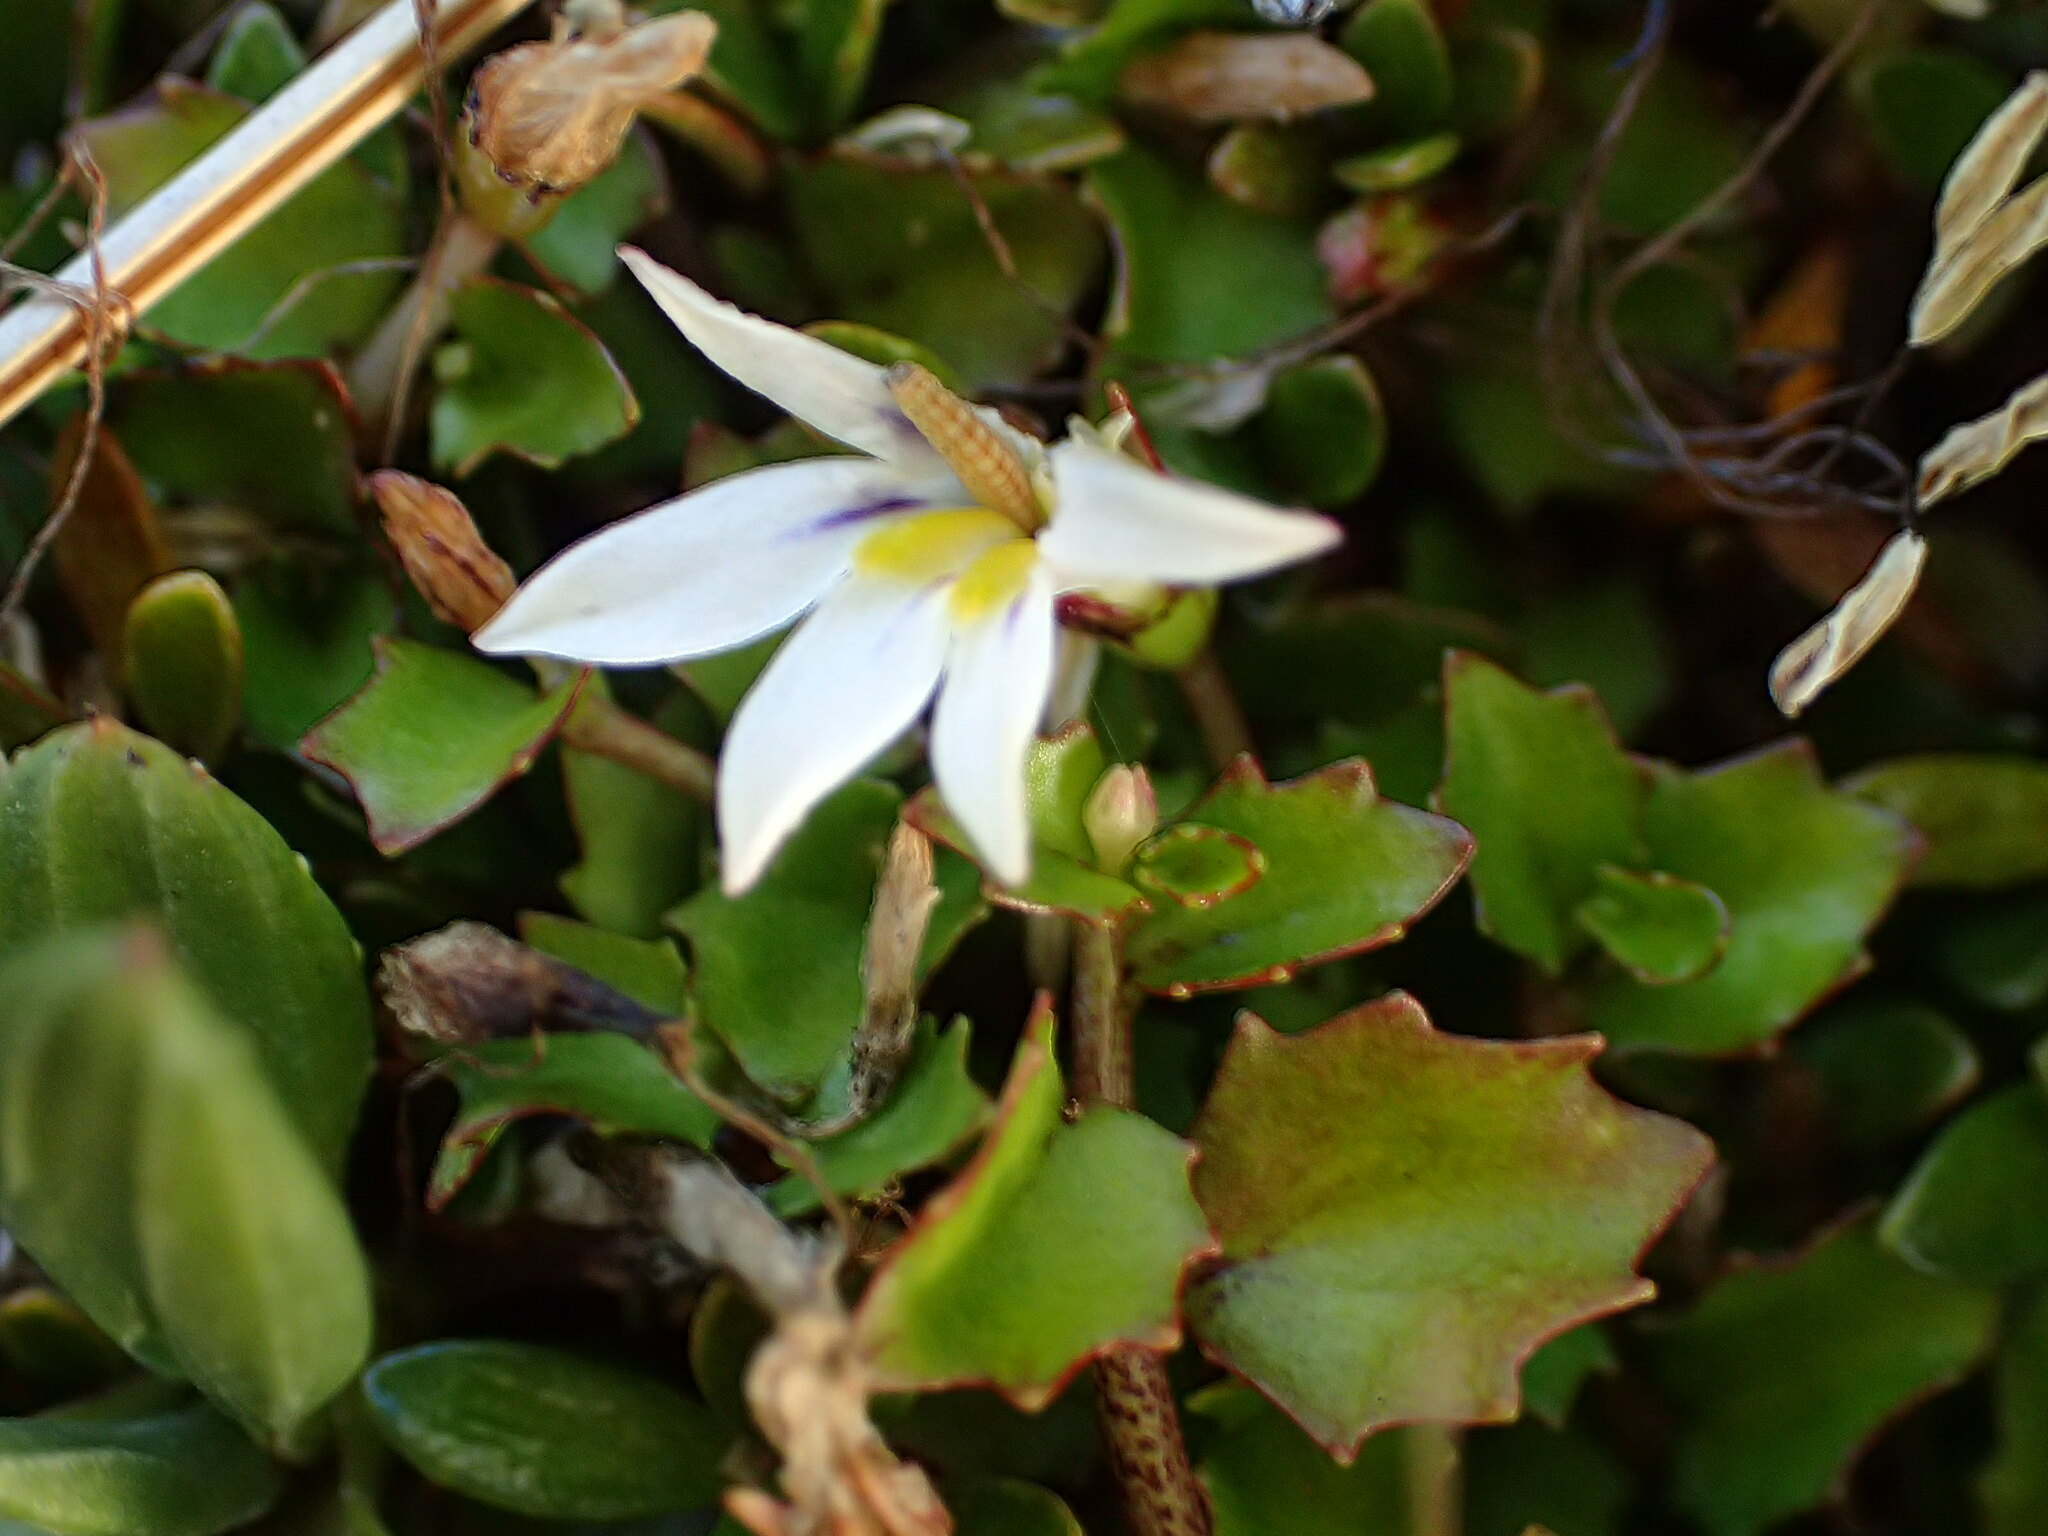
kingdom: Plantae
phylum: Tracheophyta
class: Magnoliopsida
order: Asterales
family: Campanulaceae
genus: Lobelia
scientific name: Lobelia angulata
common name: Lawn lobelia
